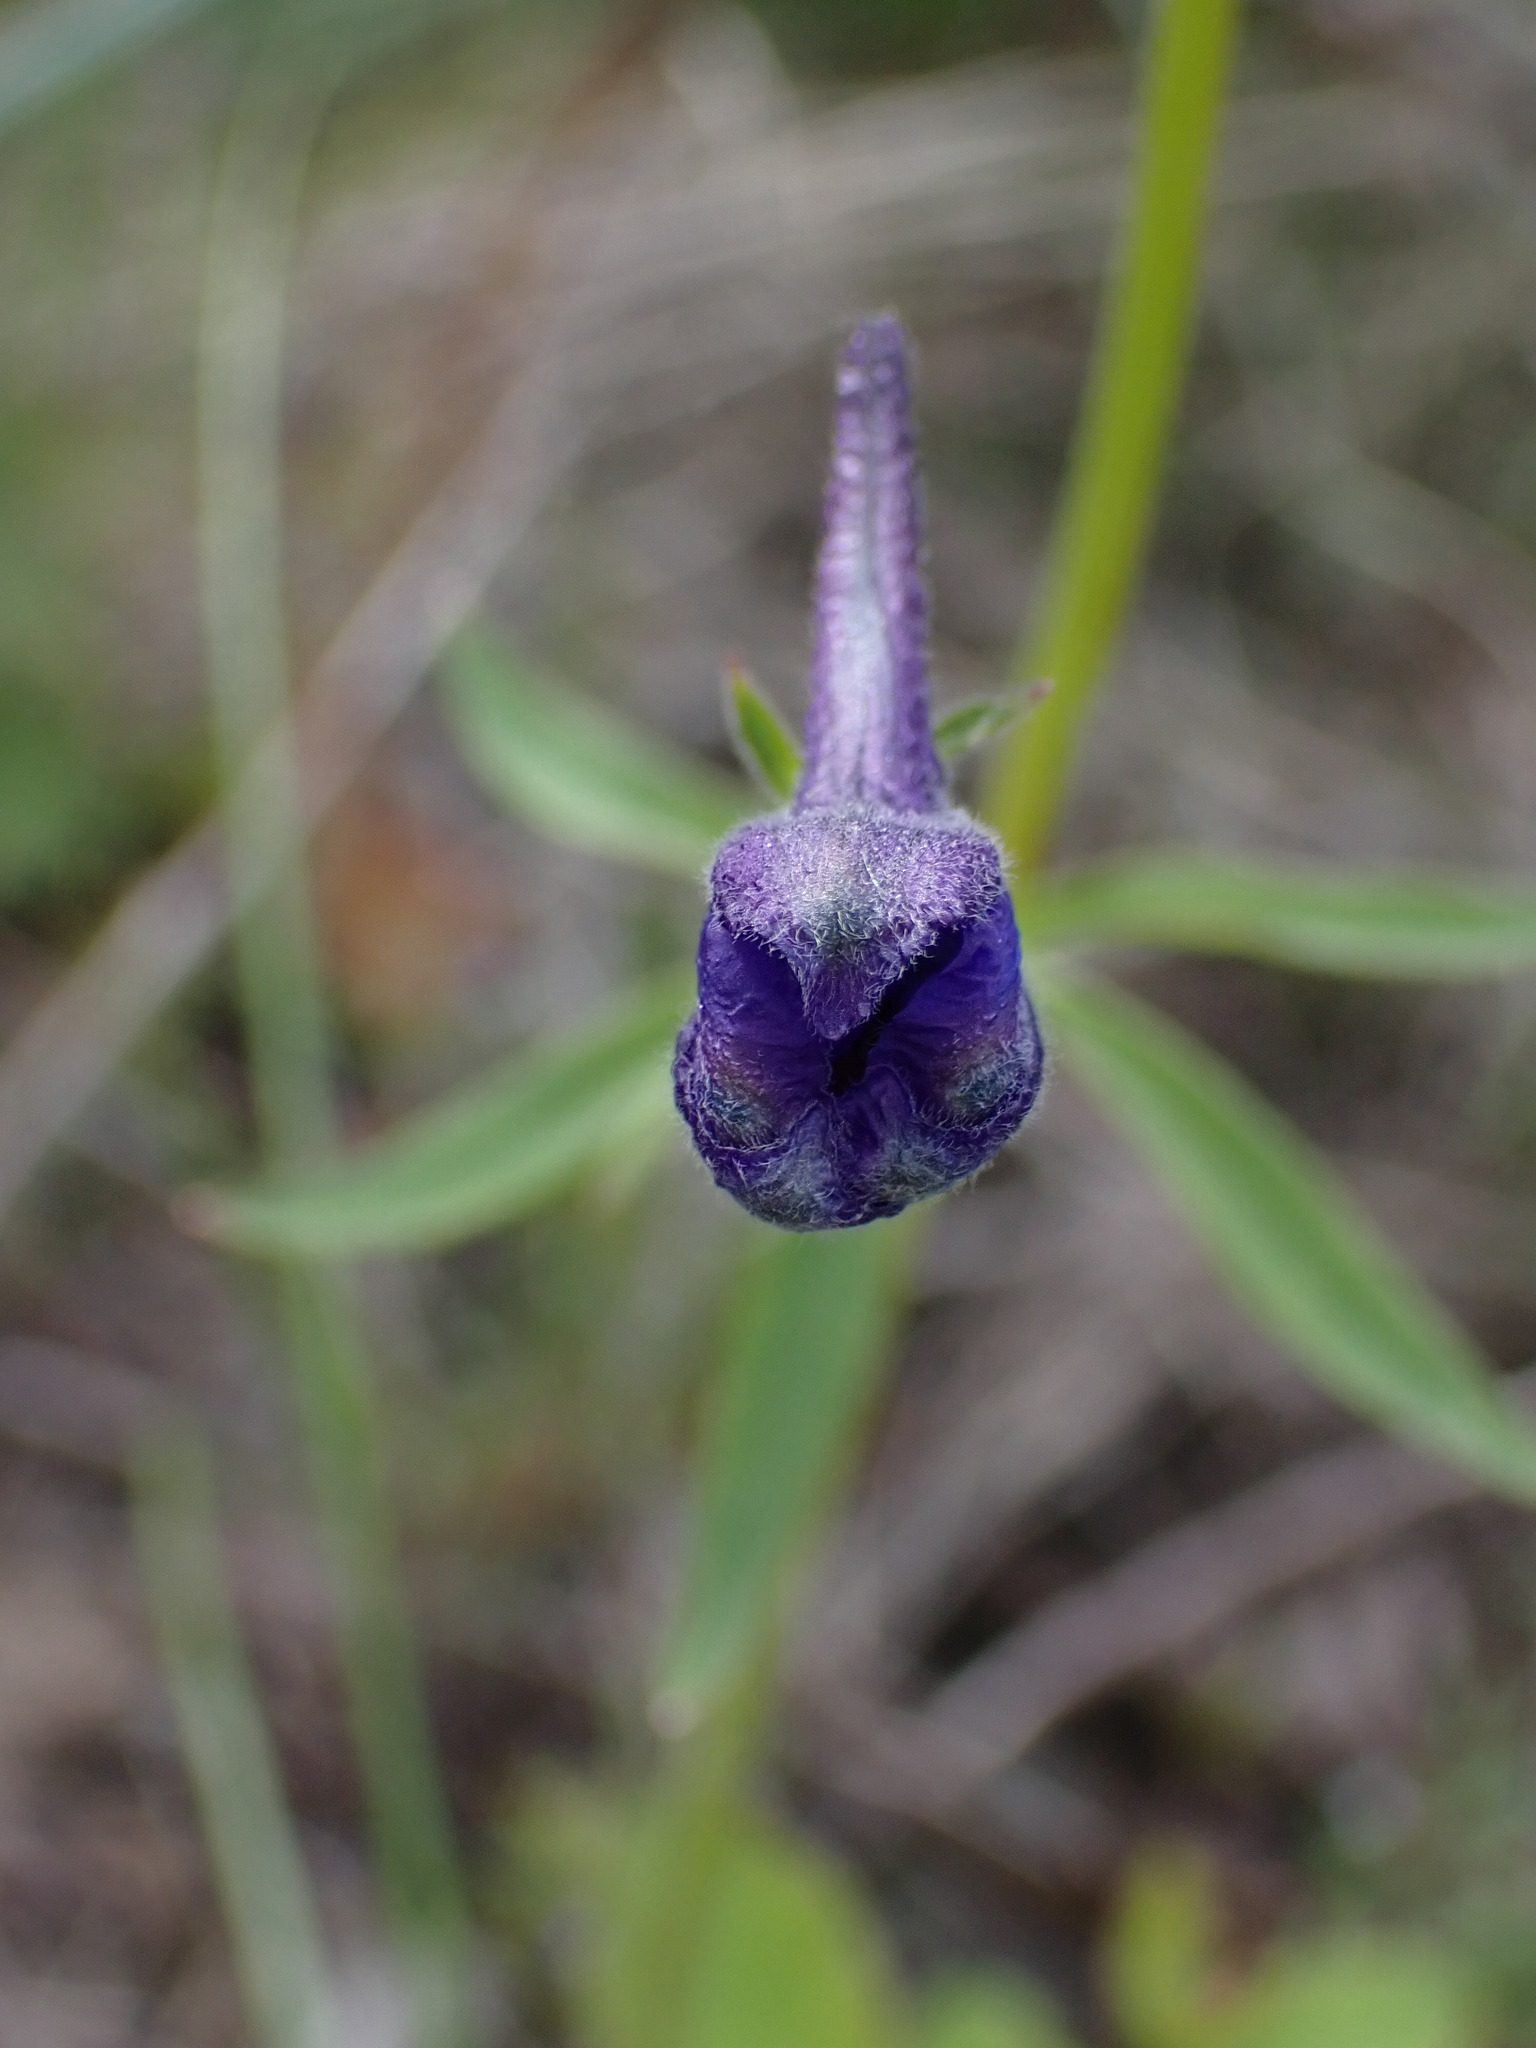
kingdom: Plantae
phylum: Tracheophyta
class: Magnoliopsida
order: Ranunculales
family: Ranunculaceae
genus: Delphinium
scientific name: Delphinium nuttallianum
